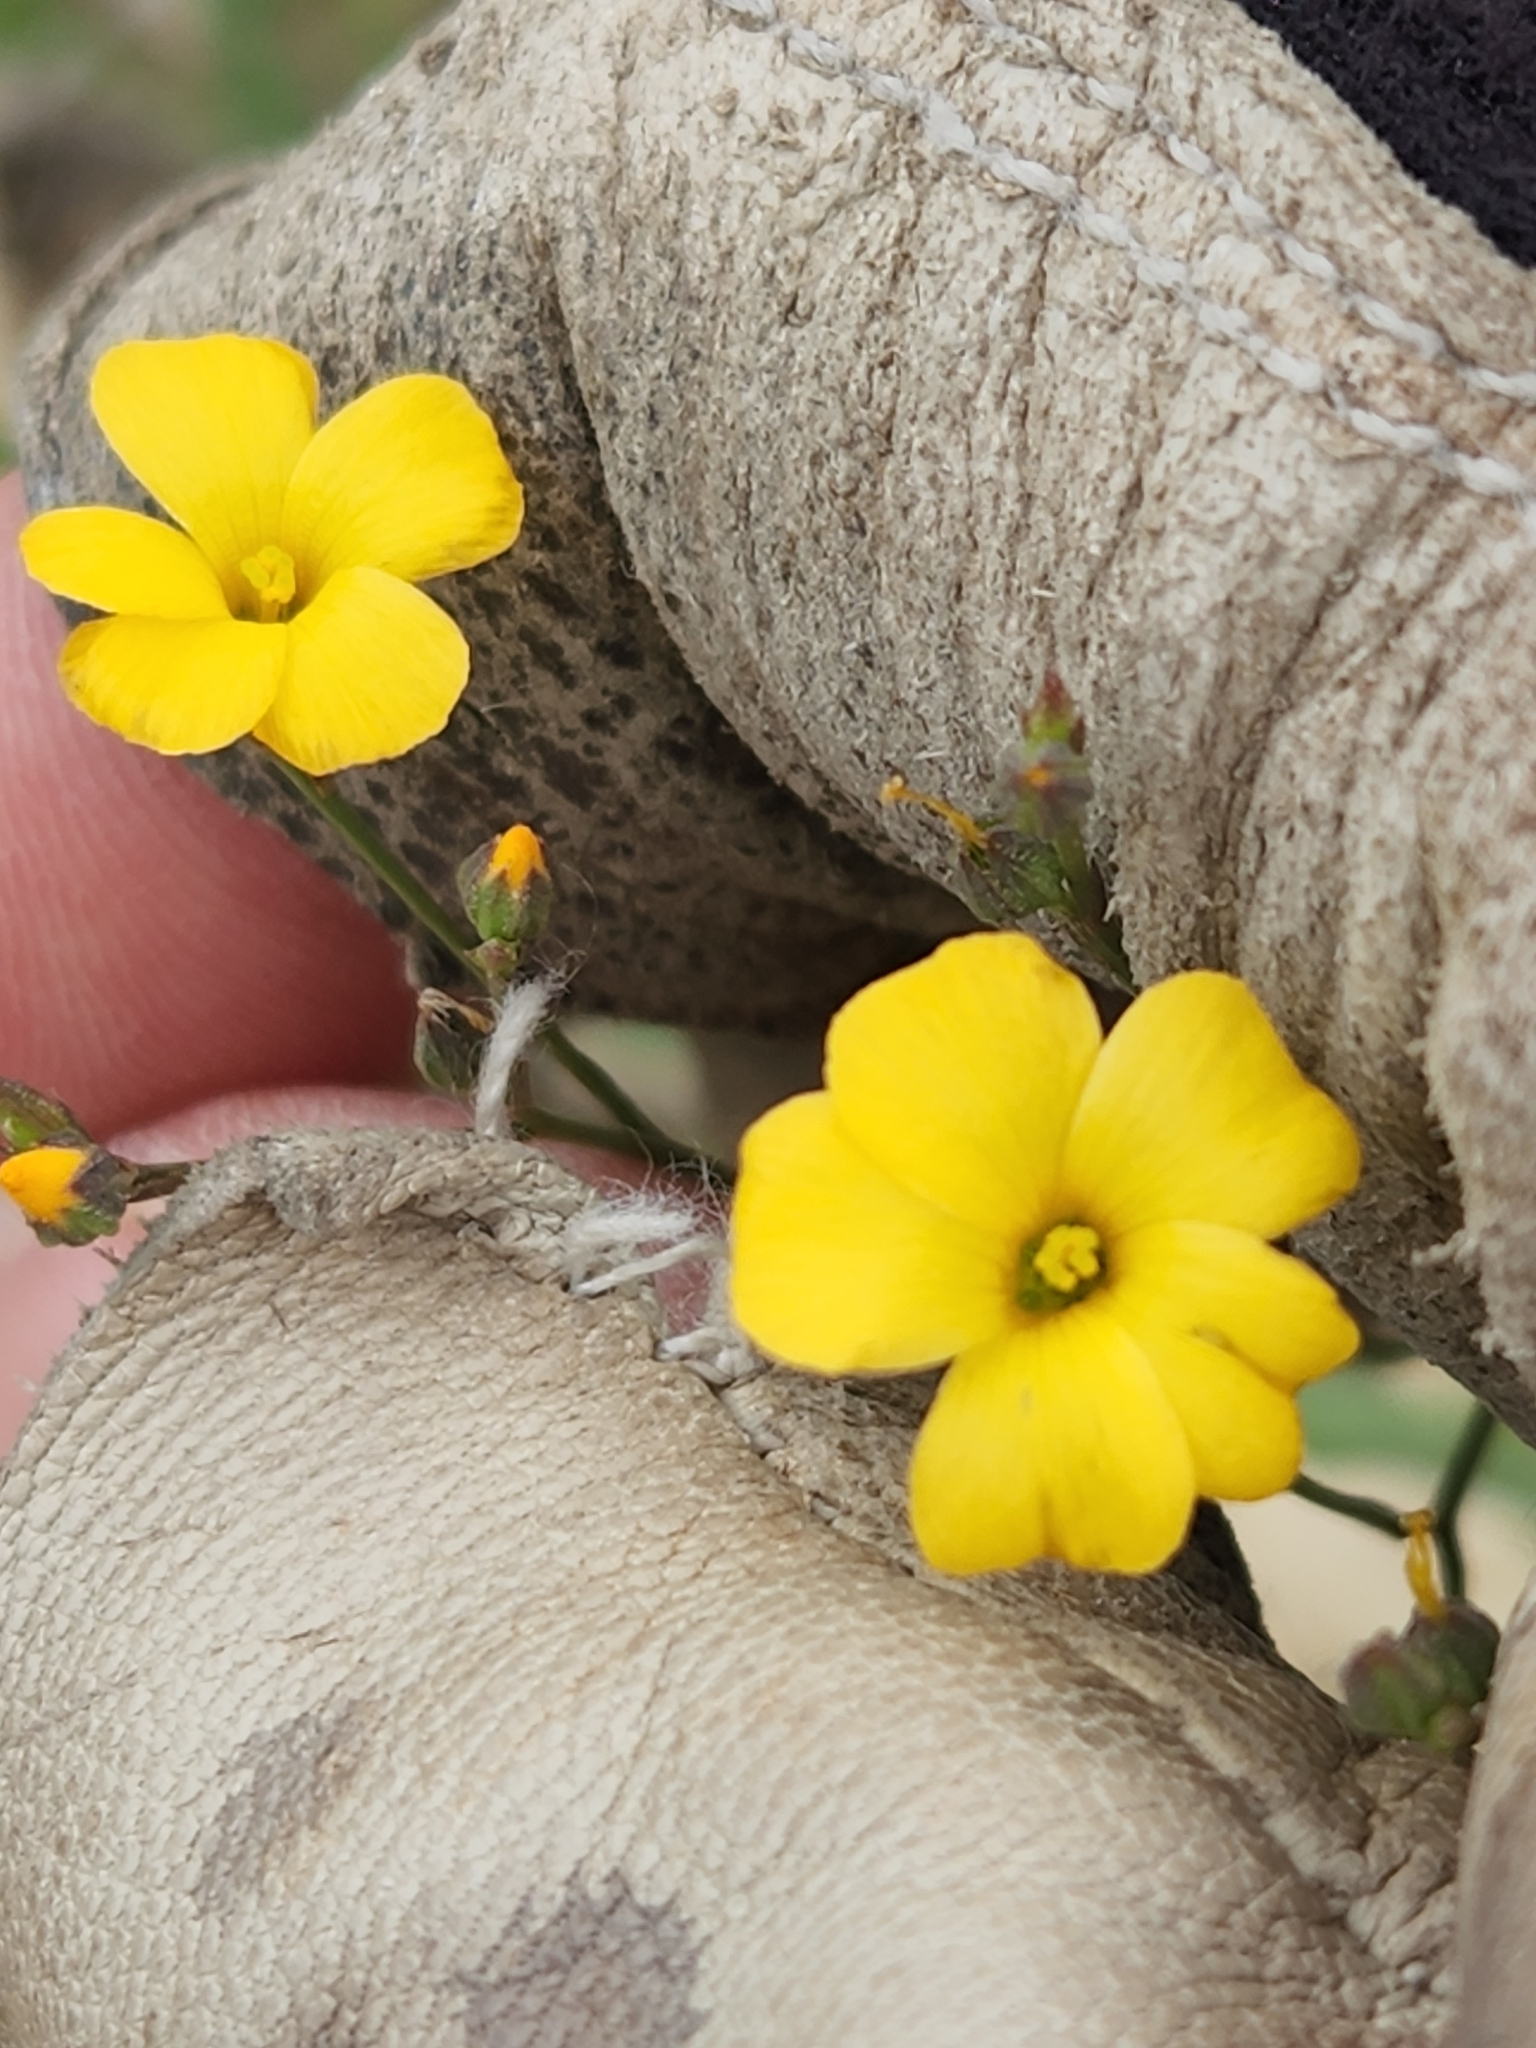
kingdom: Plantae
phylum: Tracheophyta
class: Magnoliopsida
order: Malpighiales
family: Linaceae
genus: Linum
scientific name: Linum rupestre
